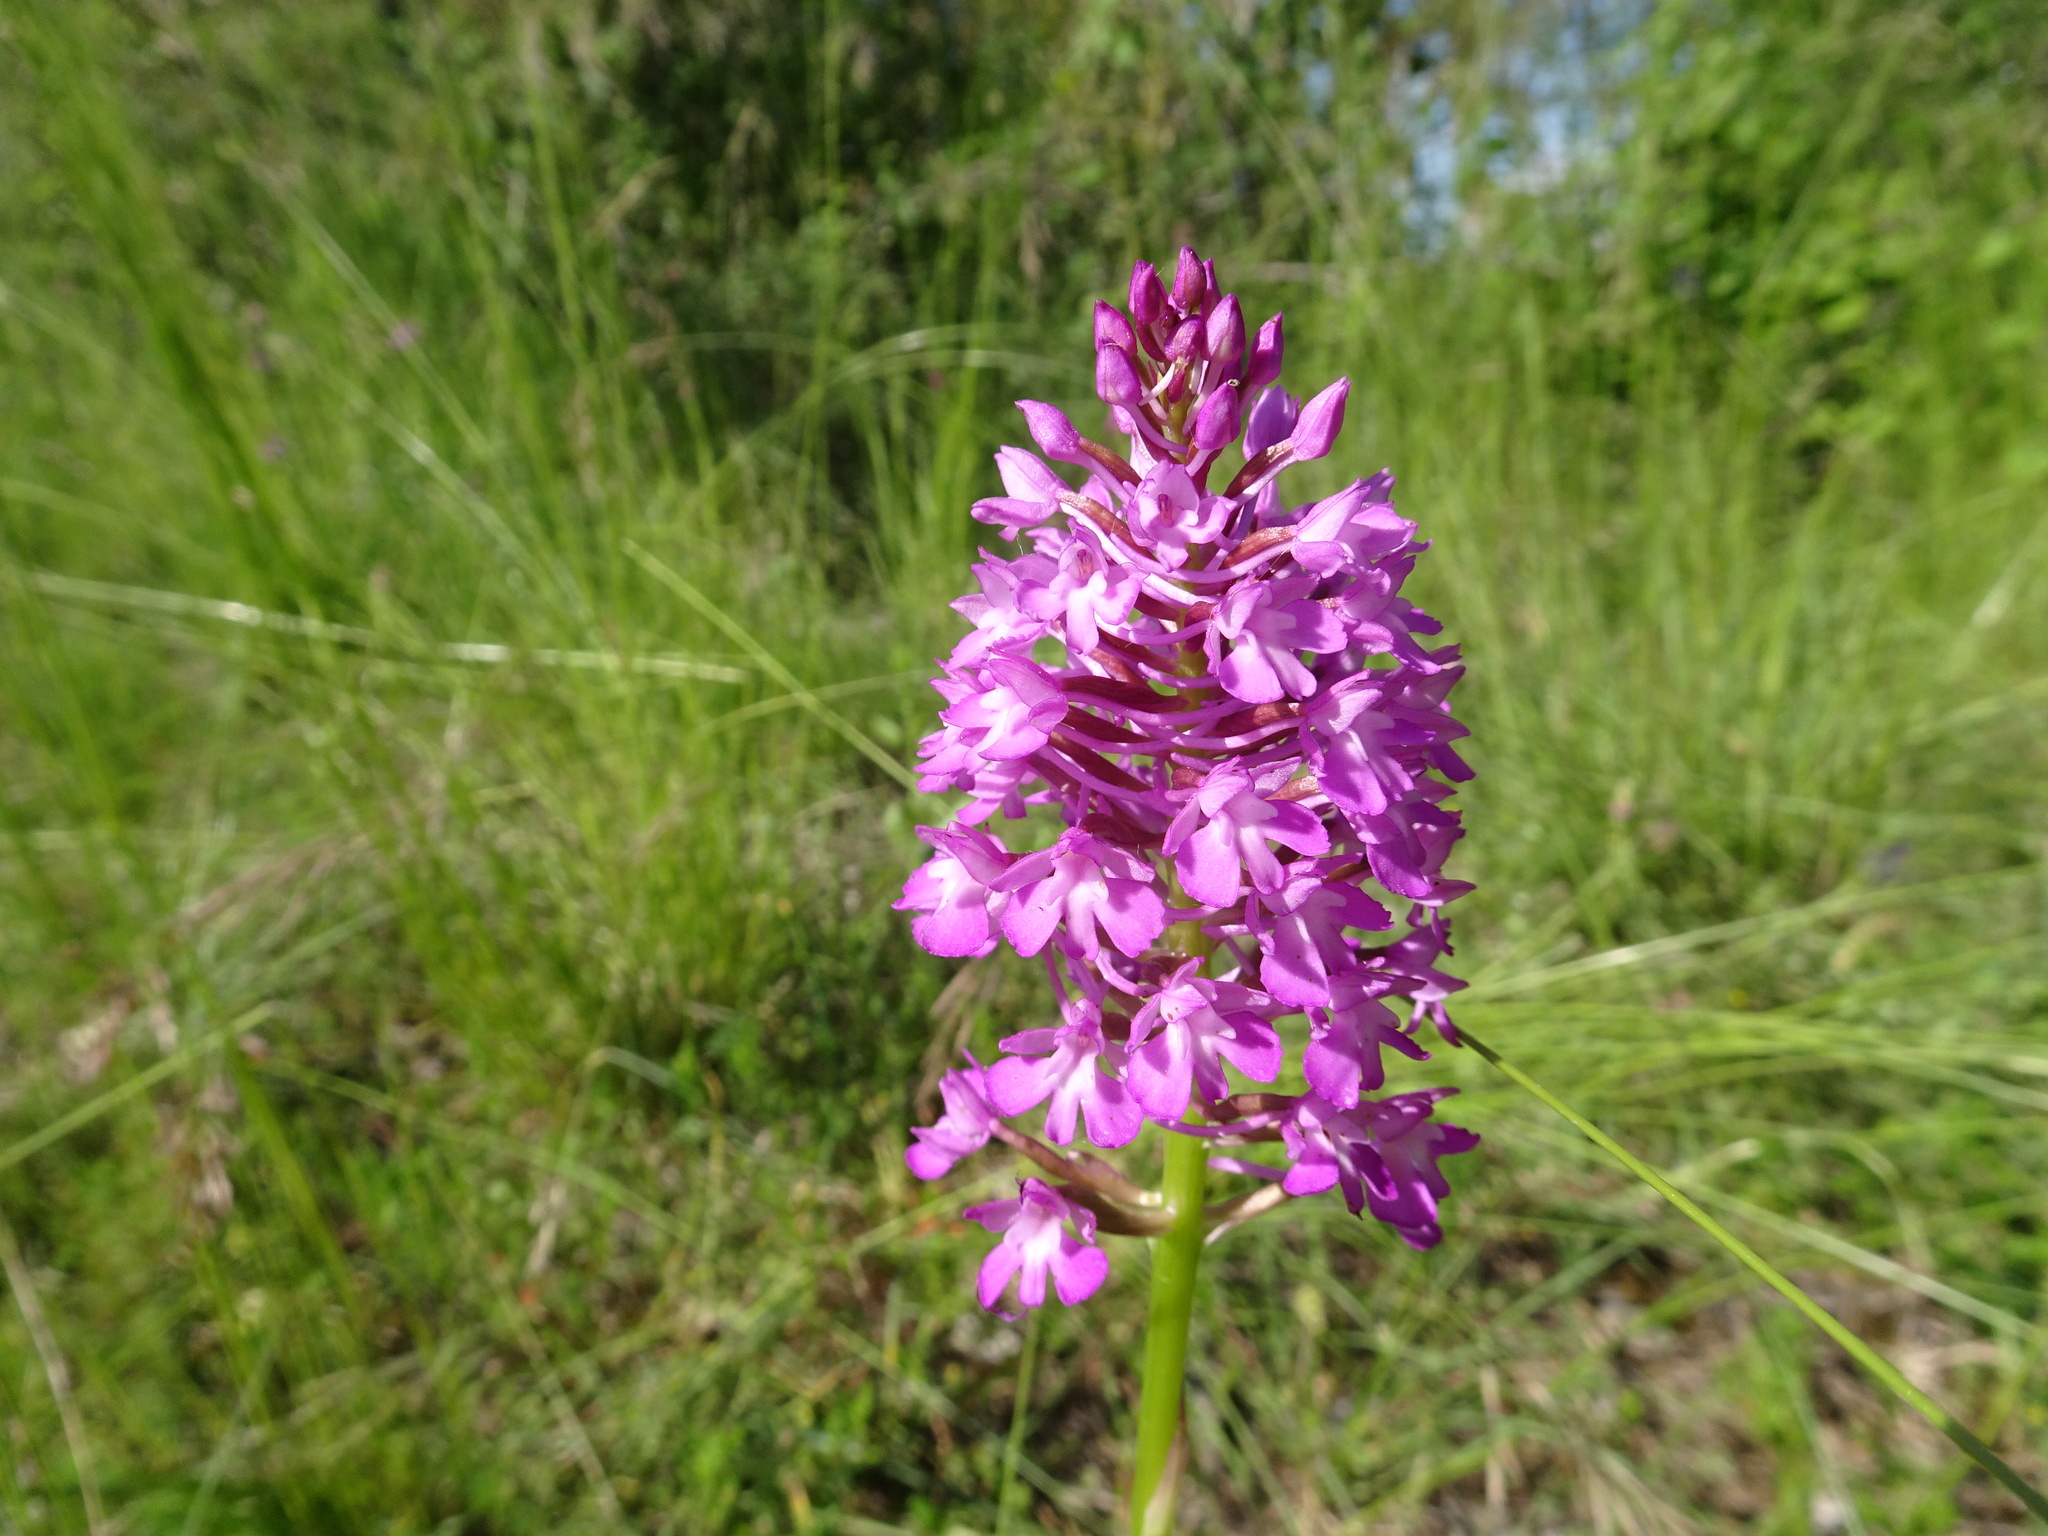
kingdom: Plantae
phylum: Tracheophyta
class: Liliopsida
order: Asparagales
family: Orchidaceae
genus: Anacamptis
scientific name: Anacamptis pyramidalis
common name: Pyramidal orchid
